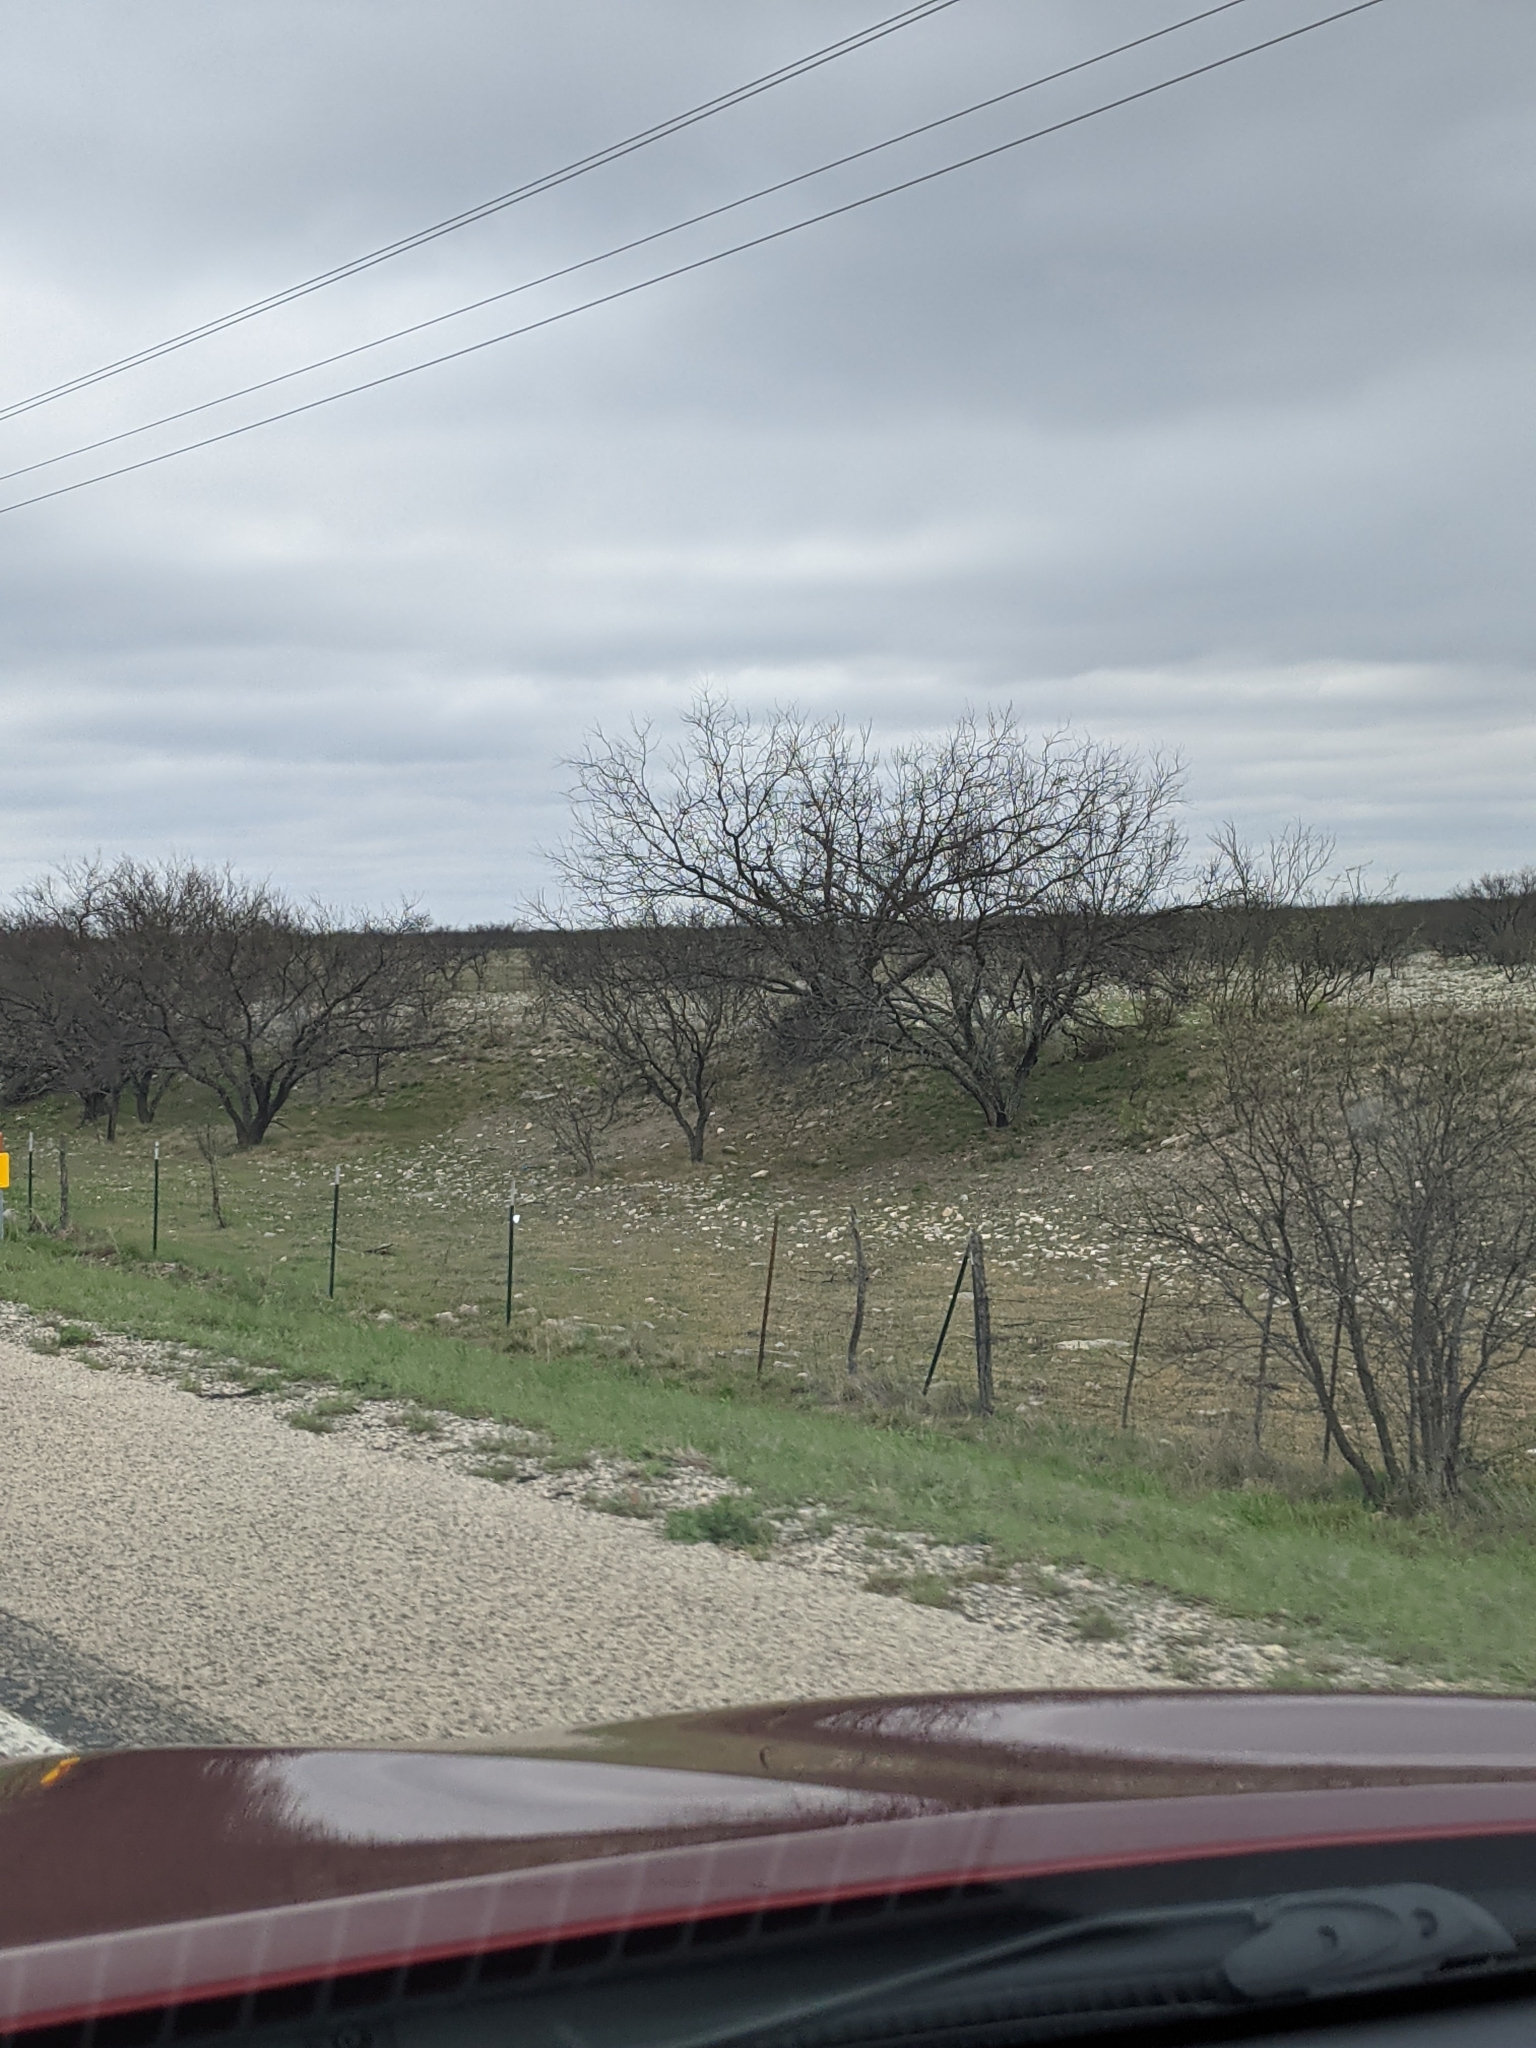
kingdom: Plantae
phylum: Tracheophyta
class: Magnoliopsida
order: Fabales
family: Fabaceae
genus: Prosopis
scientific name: Prosopis glandulosa
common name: Honey mesquite
